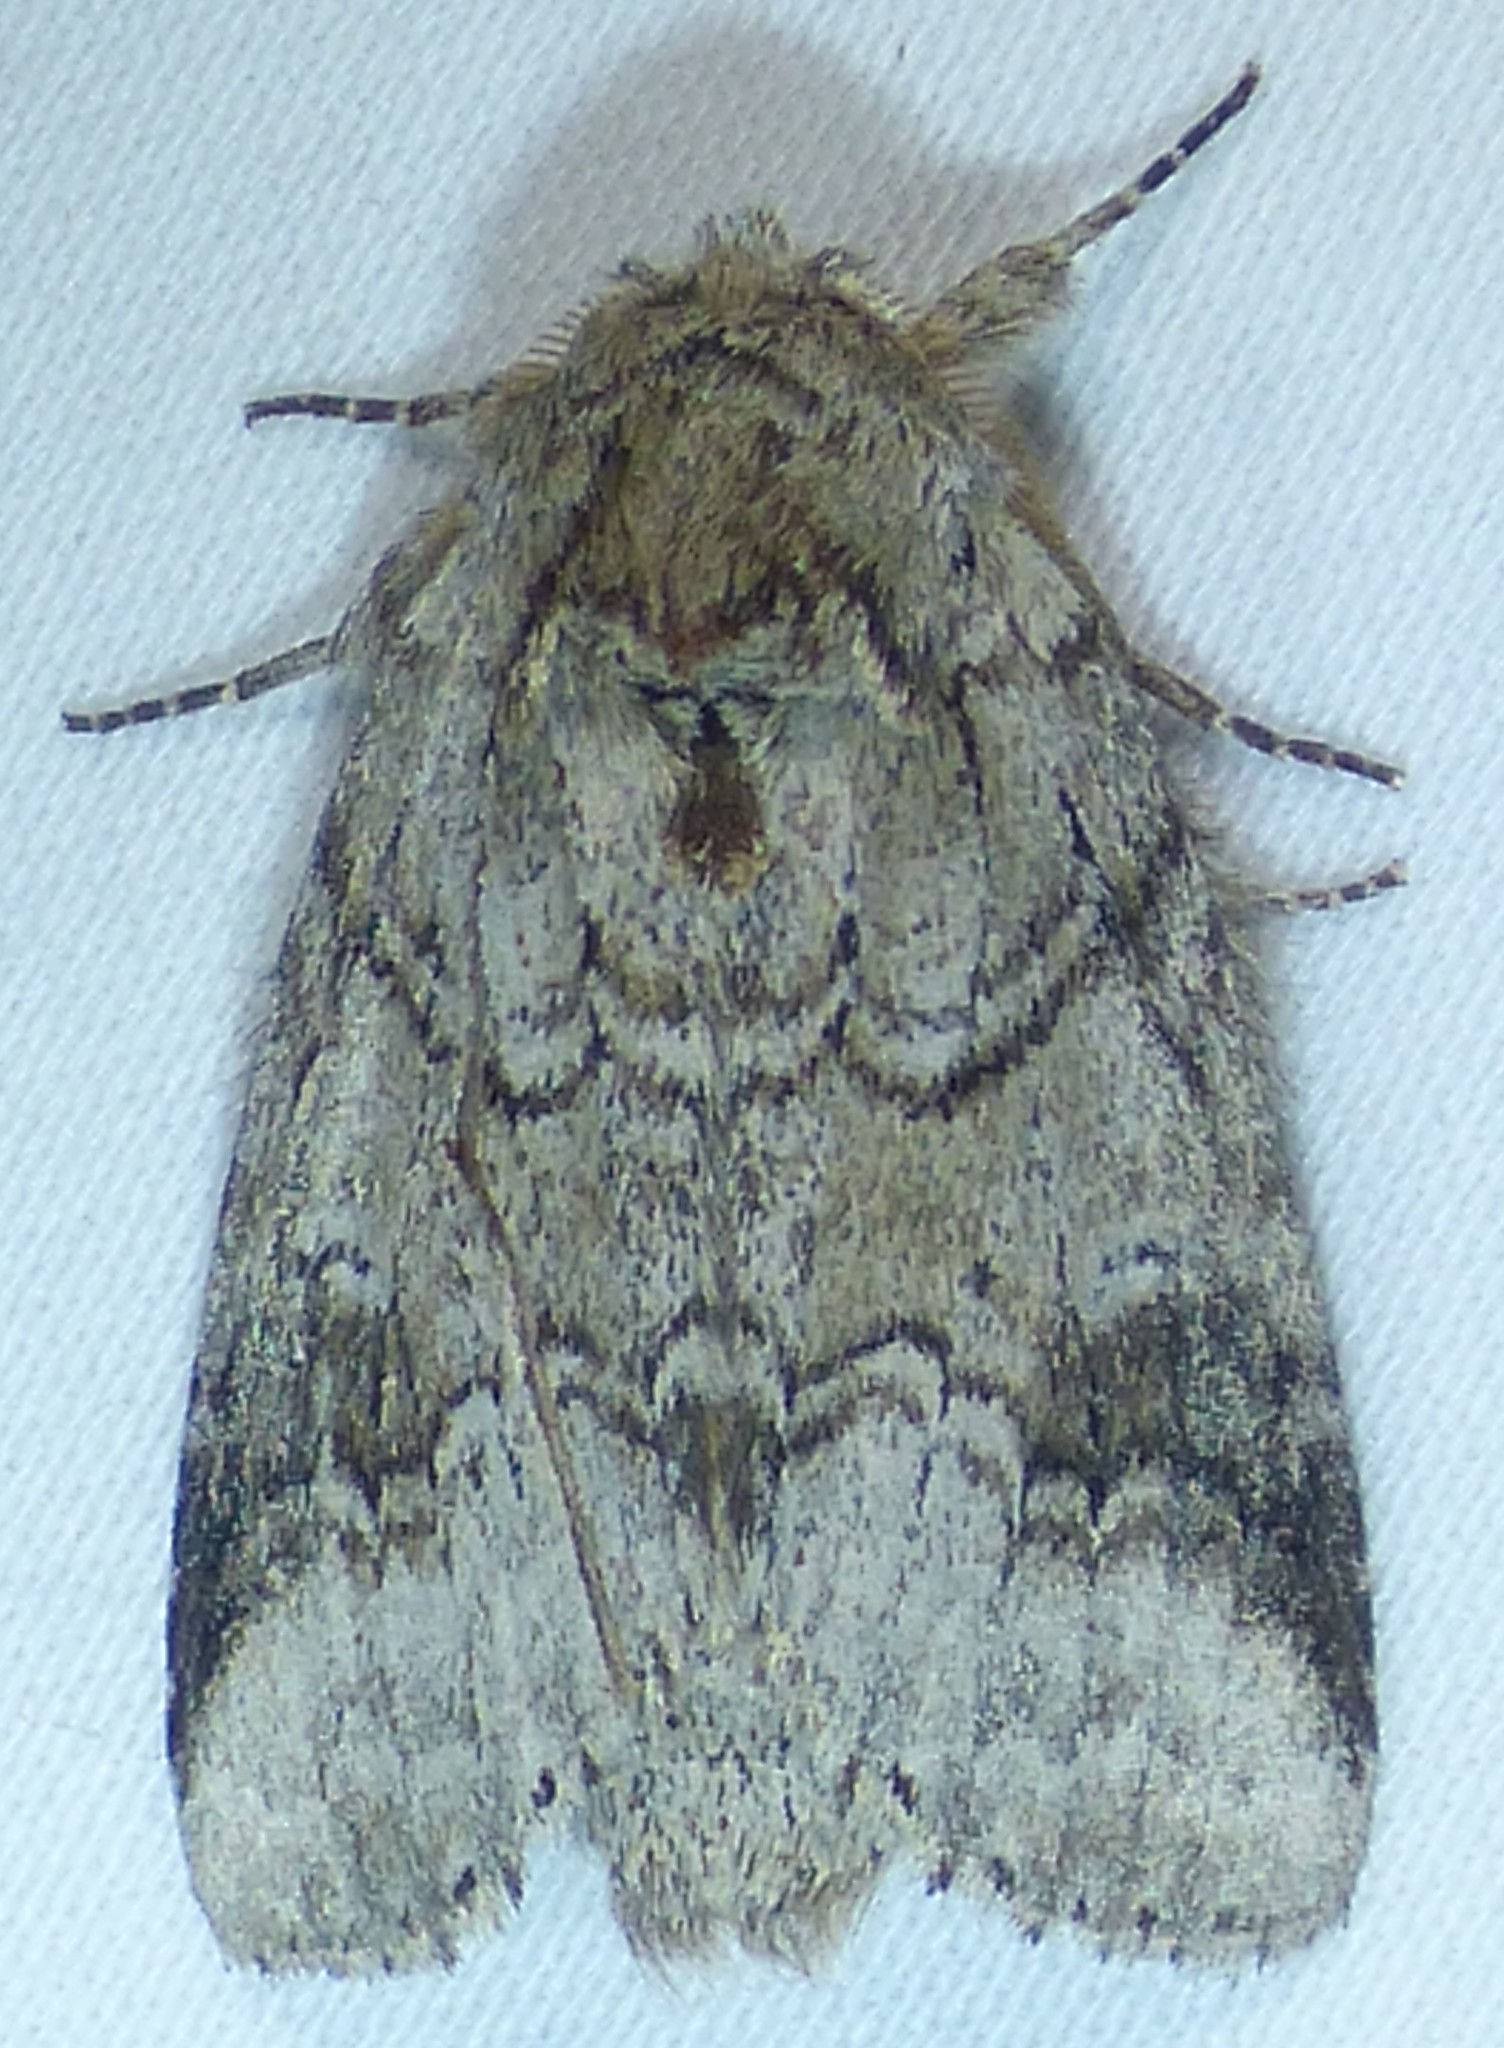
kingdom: Animalia
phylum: Arthropoda
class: Insecta
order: Lepidoptera
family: Notodontidae
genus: Lochmaeus
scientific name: Lochmaeus bilineata
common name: Double-lined prominent
